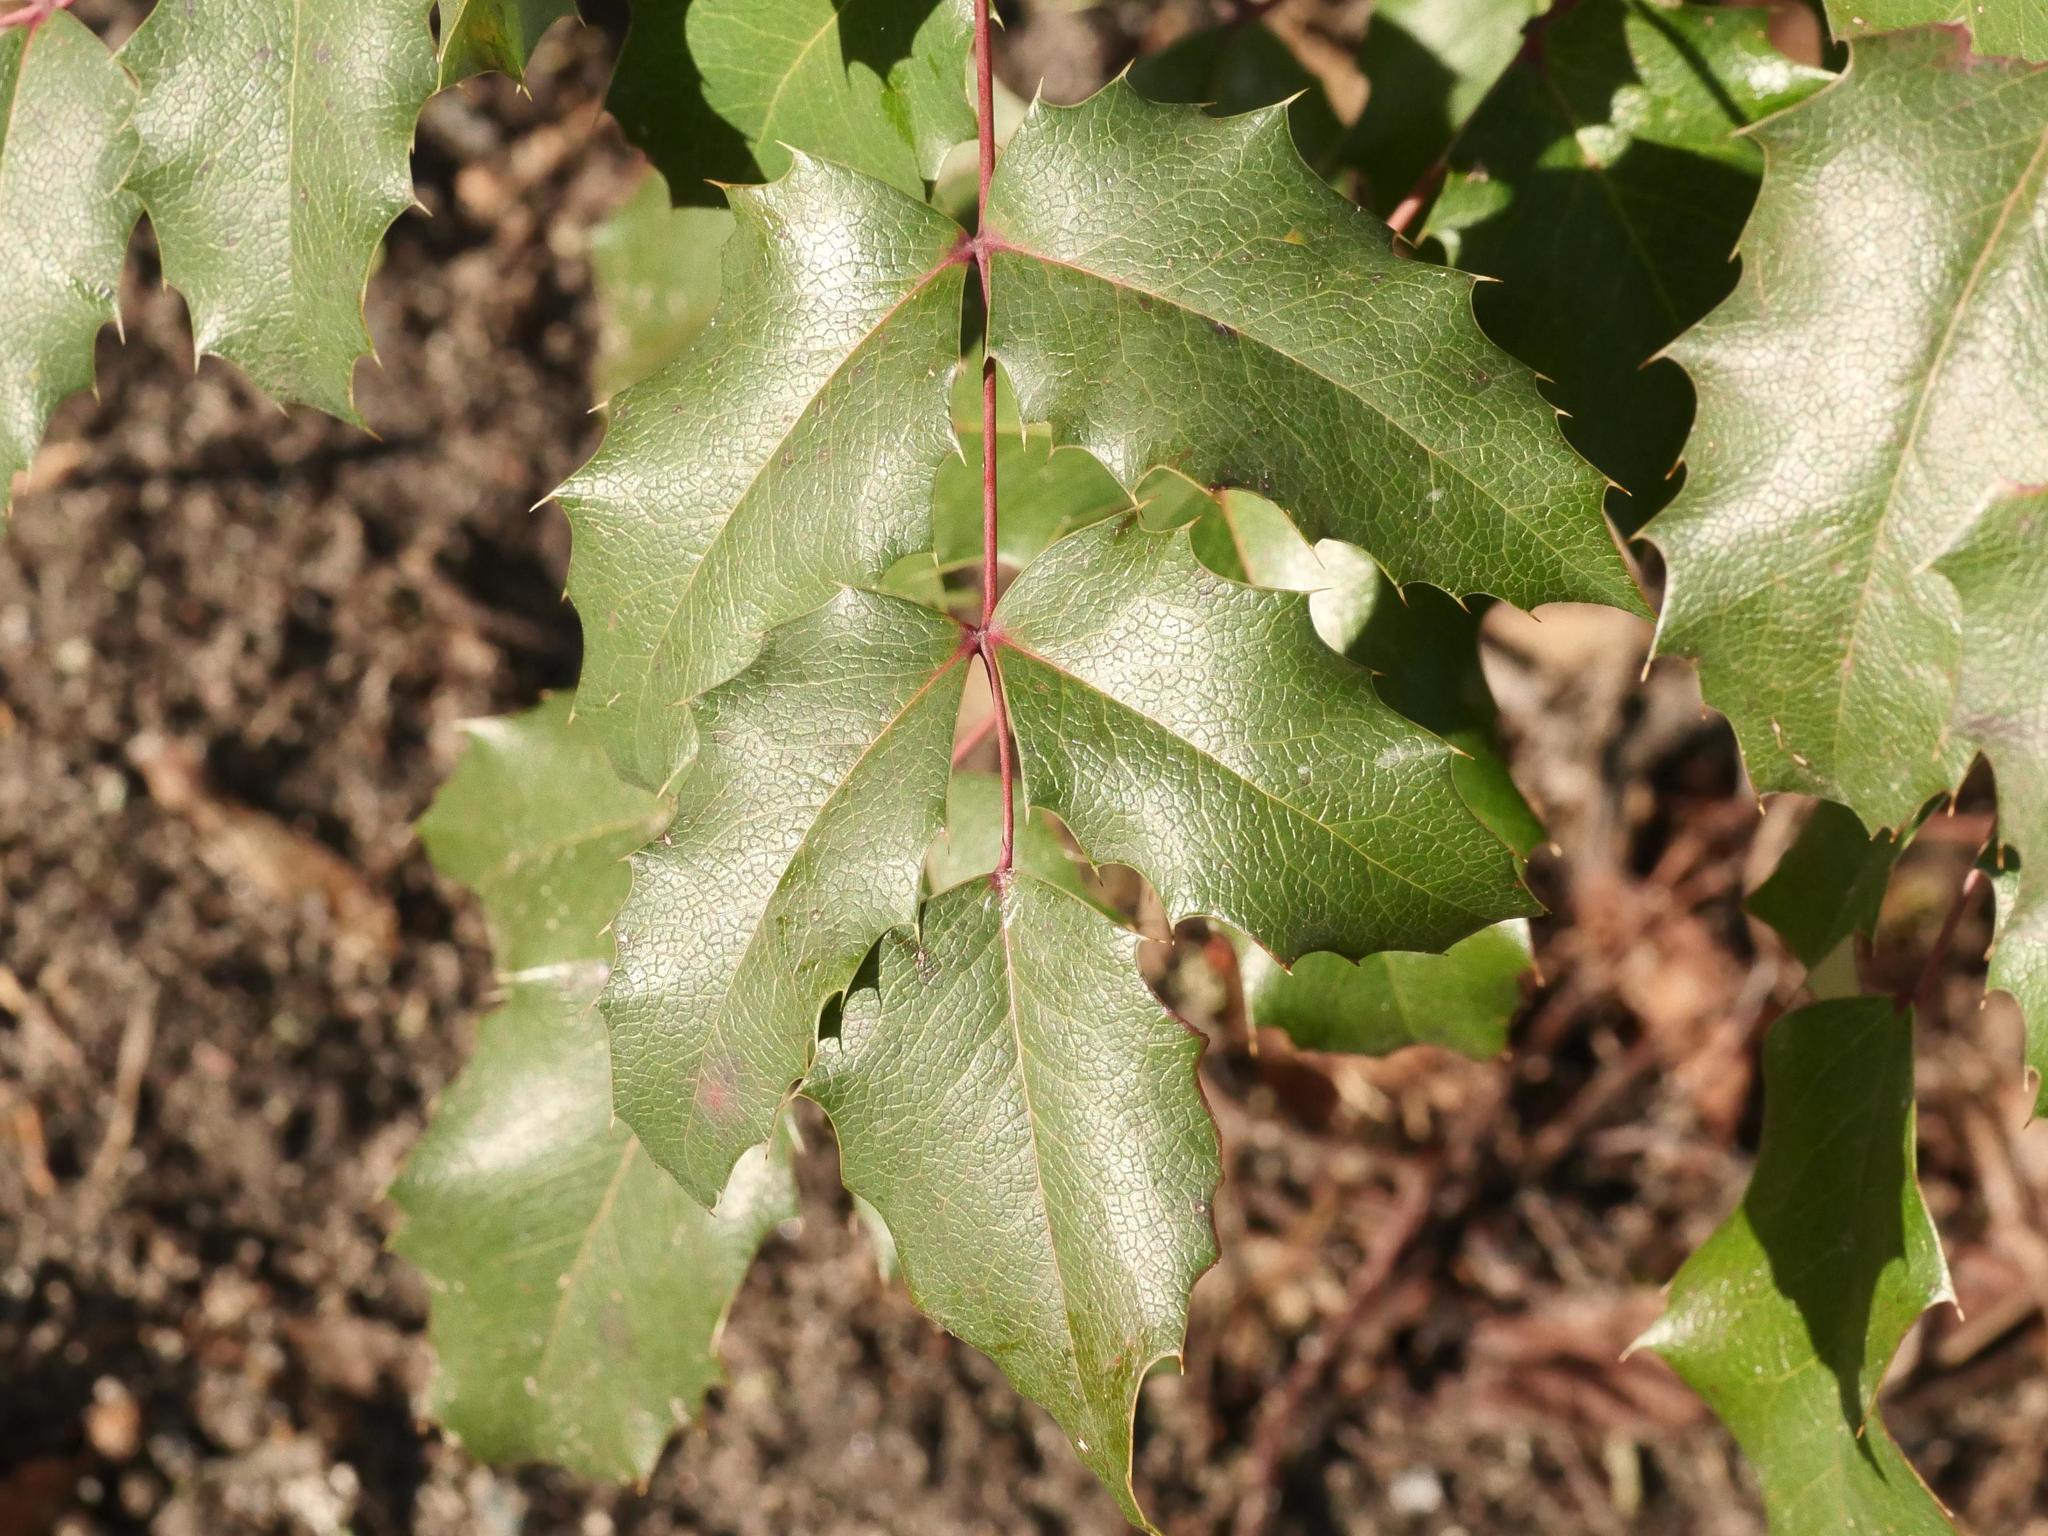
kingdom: Plantae
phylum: Tracheophyta
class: Magnoliopsida
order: Ranunculales
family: Berberidaceae
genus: Mahonia
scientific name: Mahonia aquifolium
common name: Oregon-grape
